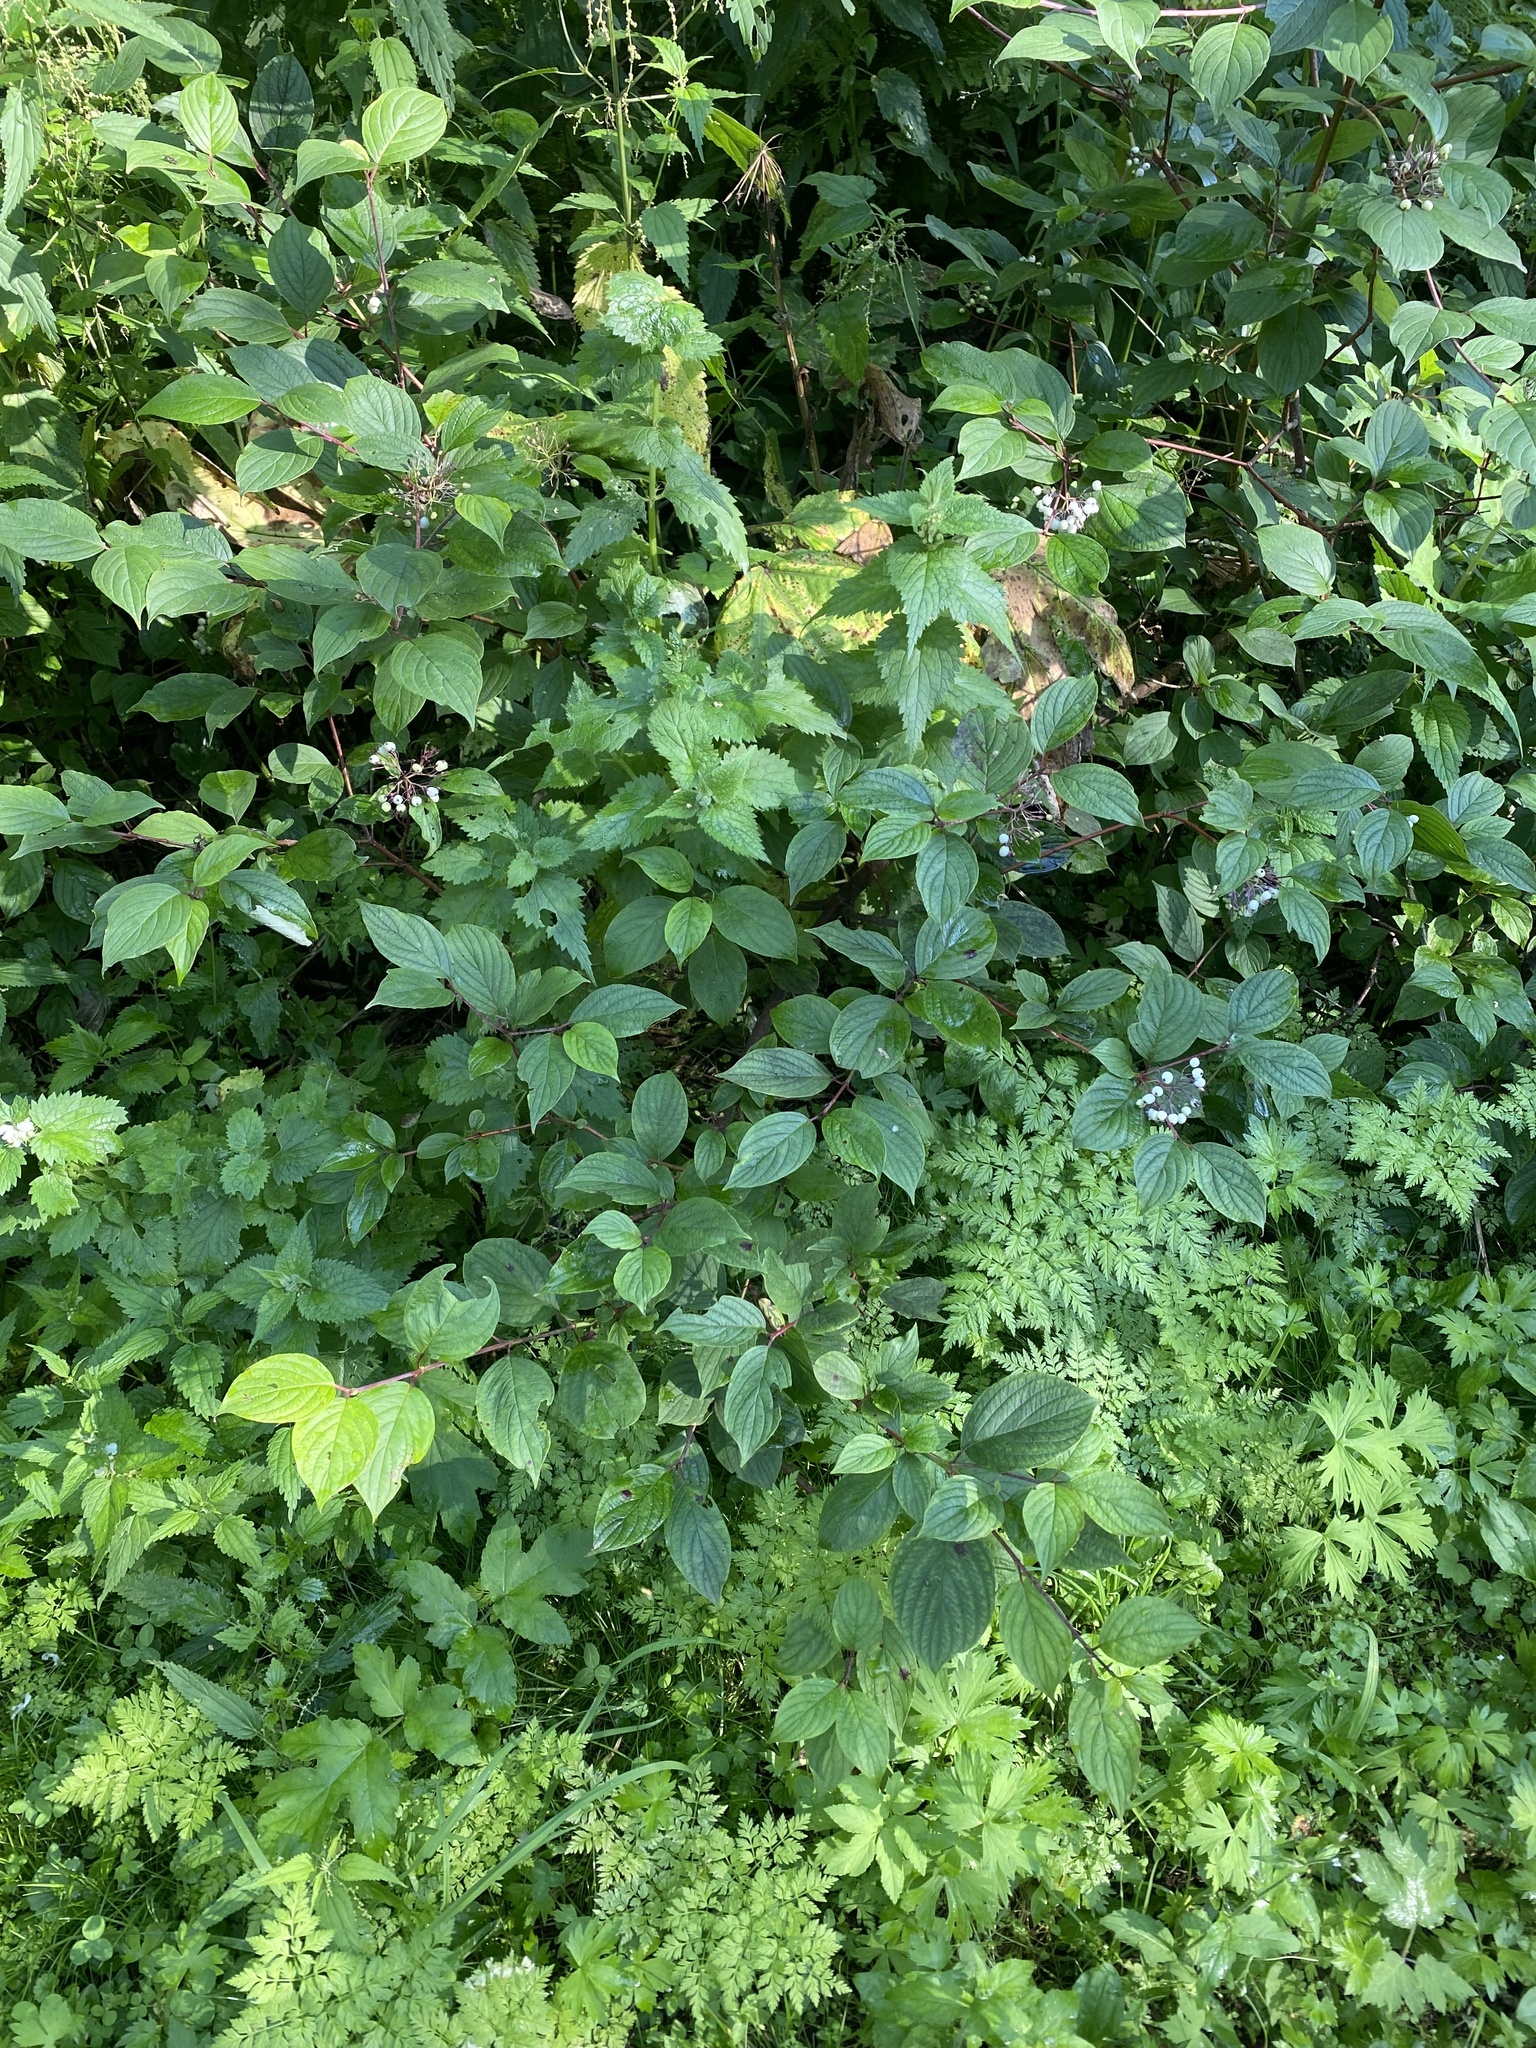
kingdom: Plantae
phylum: Tracheophyta
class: Magnoliopsida
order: Cornales
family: Cornaceae
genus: Cornus
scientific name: Cornus alba
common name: White dogwood
